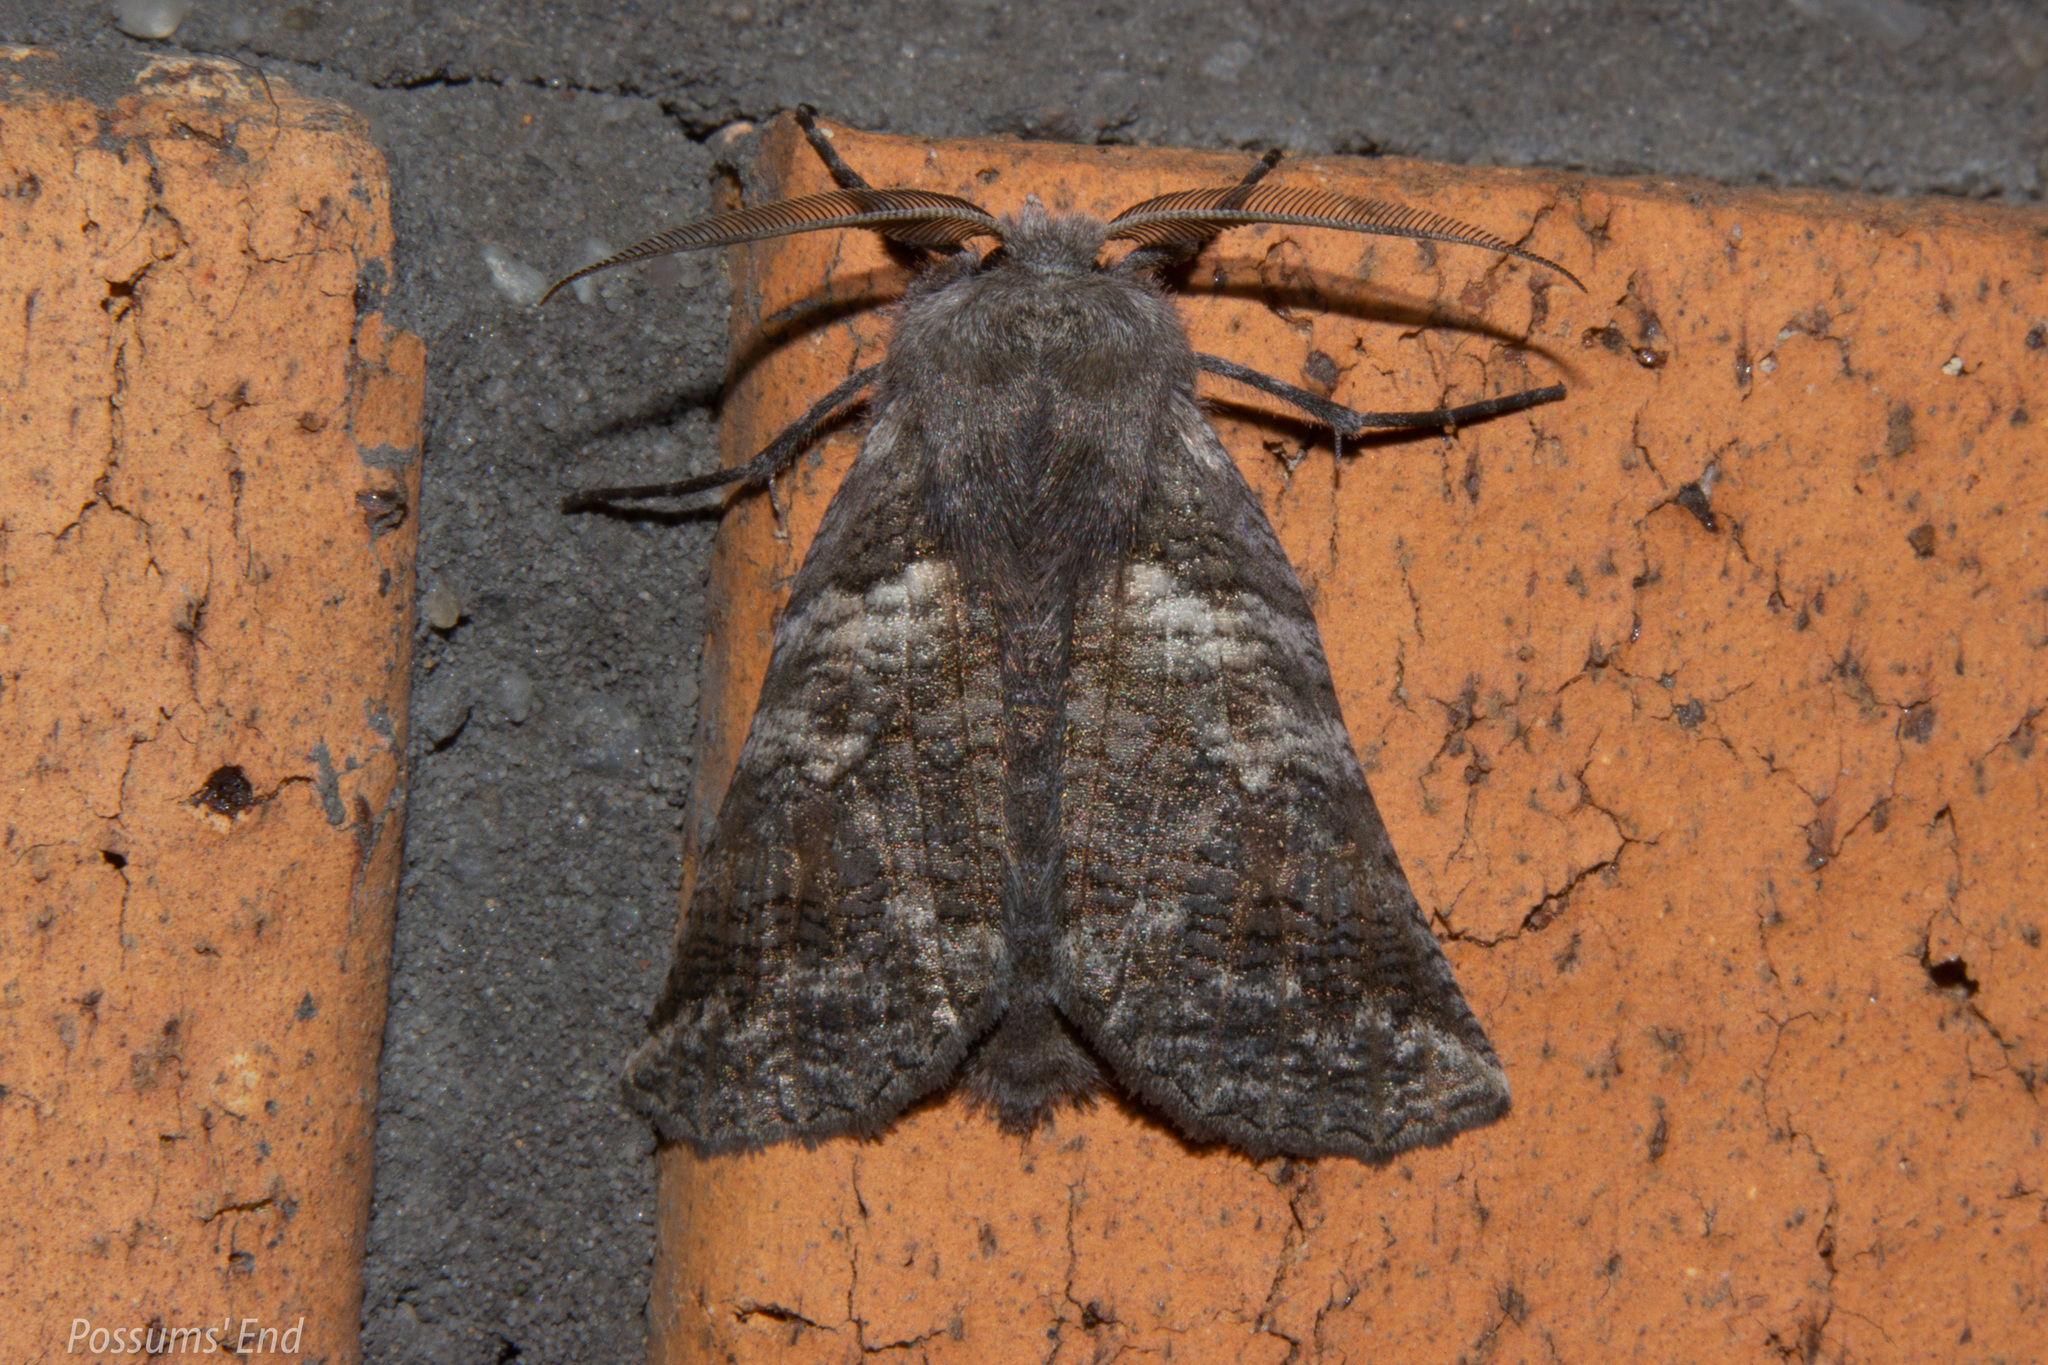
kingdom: Animalia
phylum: Arthropoda
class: Insecta
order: Lepidoptera
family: Geometridae
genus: Declana
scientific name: Declana
